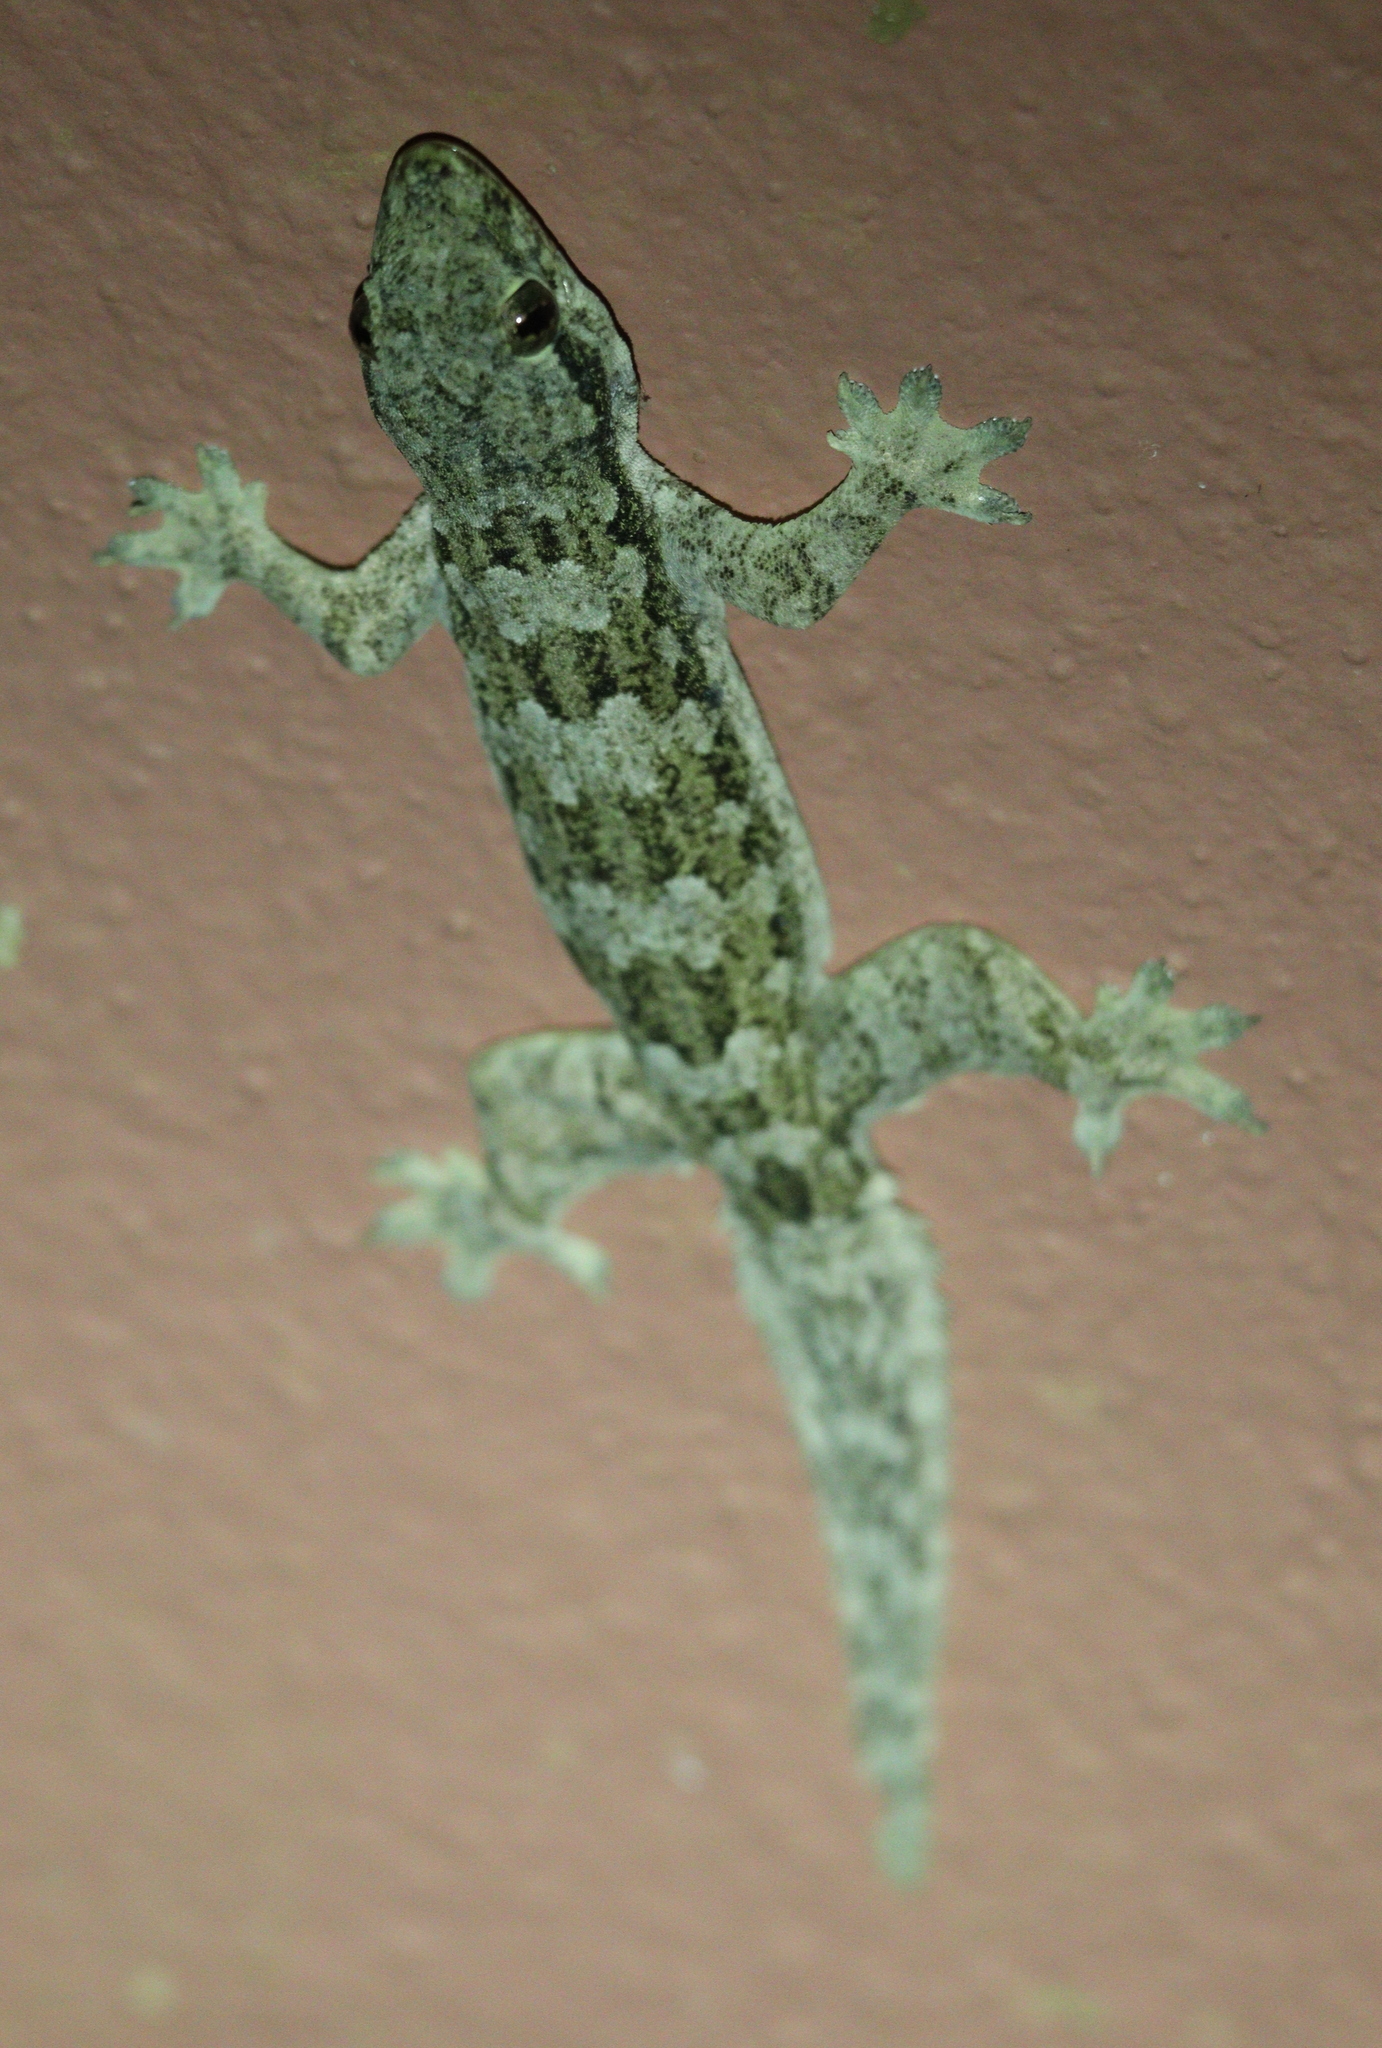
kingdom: Animalia
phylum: Chordata
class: Squamata
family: Gekkonidae
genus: Hemidactylus
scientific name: Hemidactylus platyurus
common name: Flat-tailed house gecko
